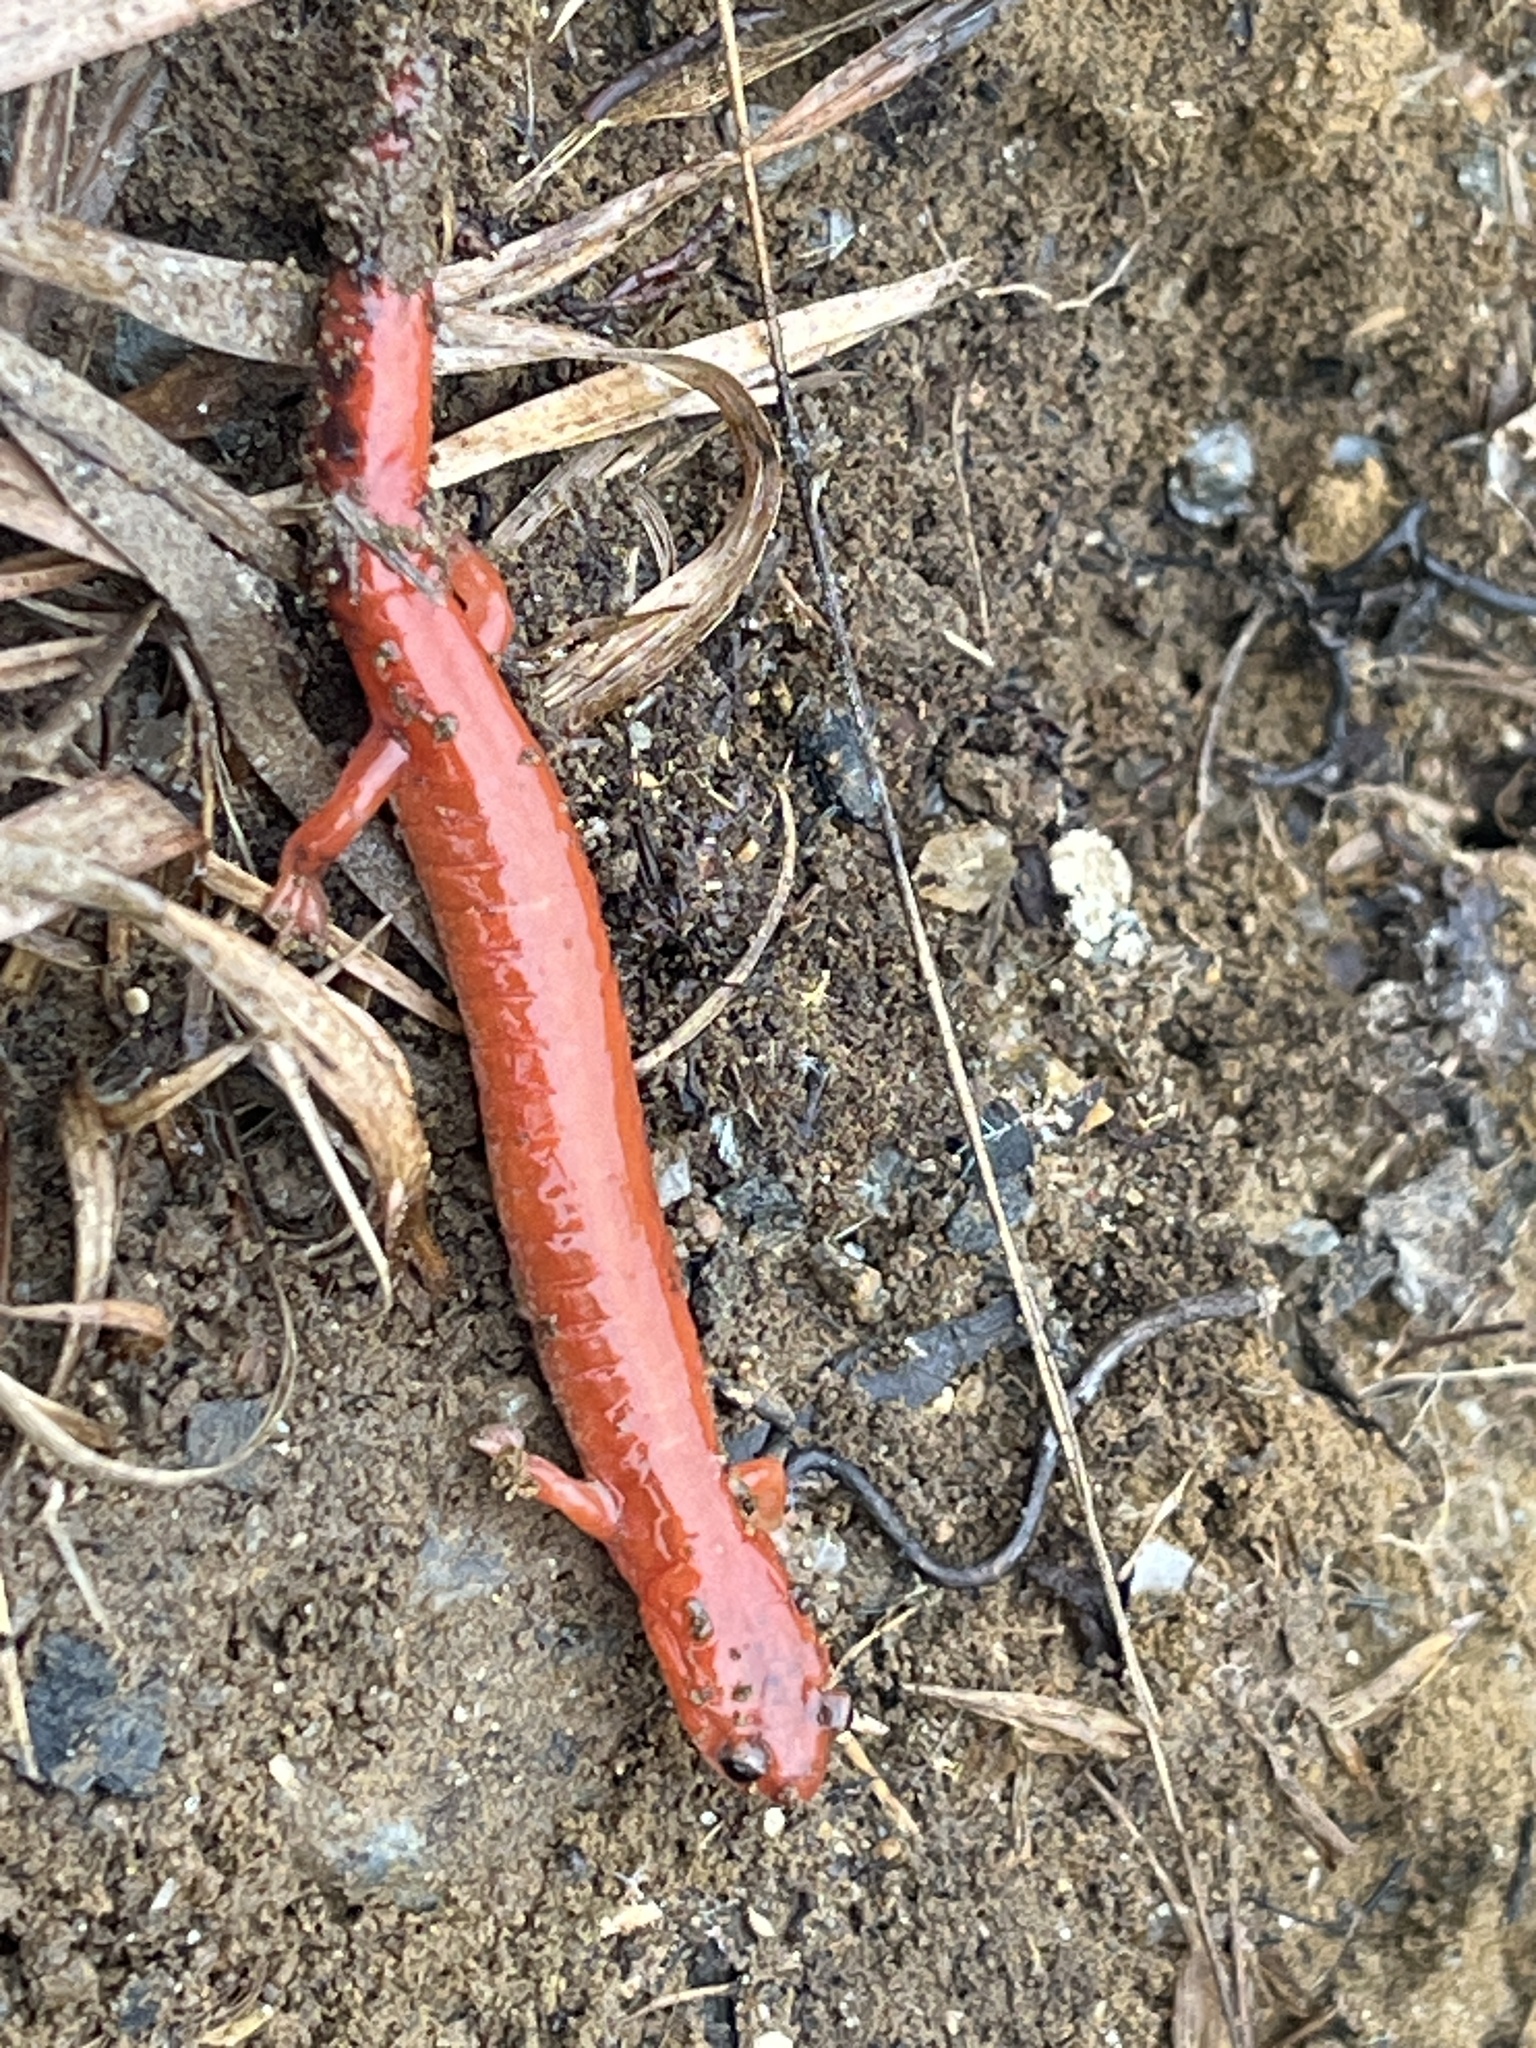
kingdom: Animalia
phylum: Chordata
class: Amphibia
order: Caudata
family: Plethodontidae
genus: Plethodon
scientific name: Plethodon cinereus
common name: Redback salamander
